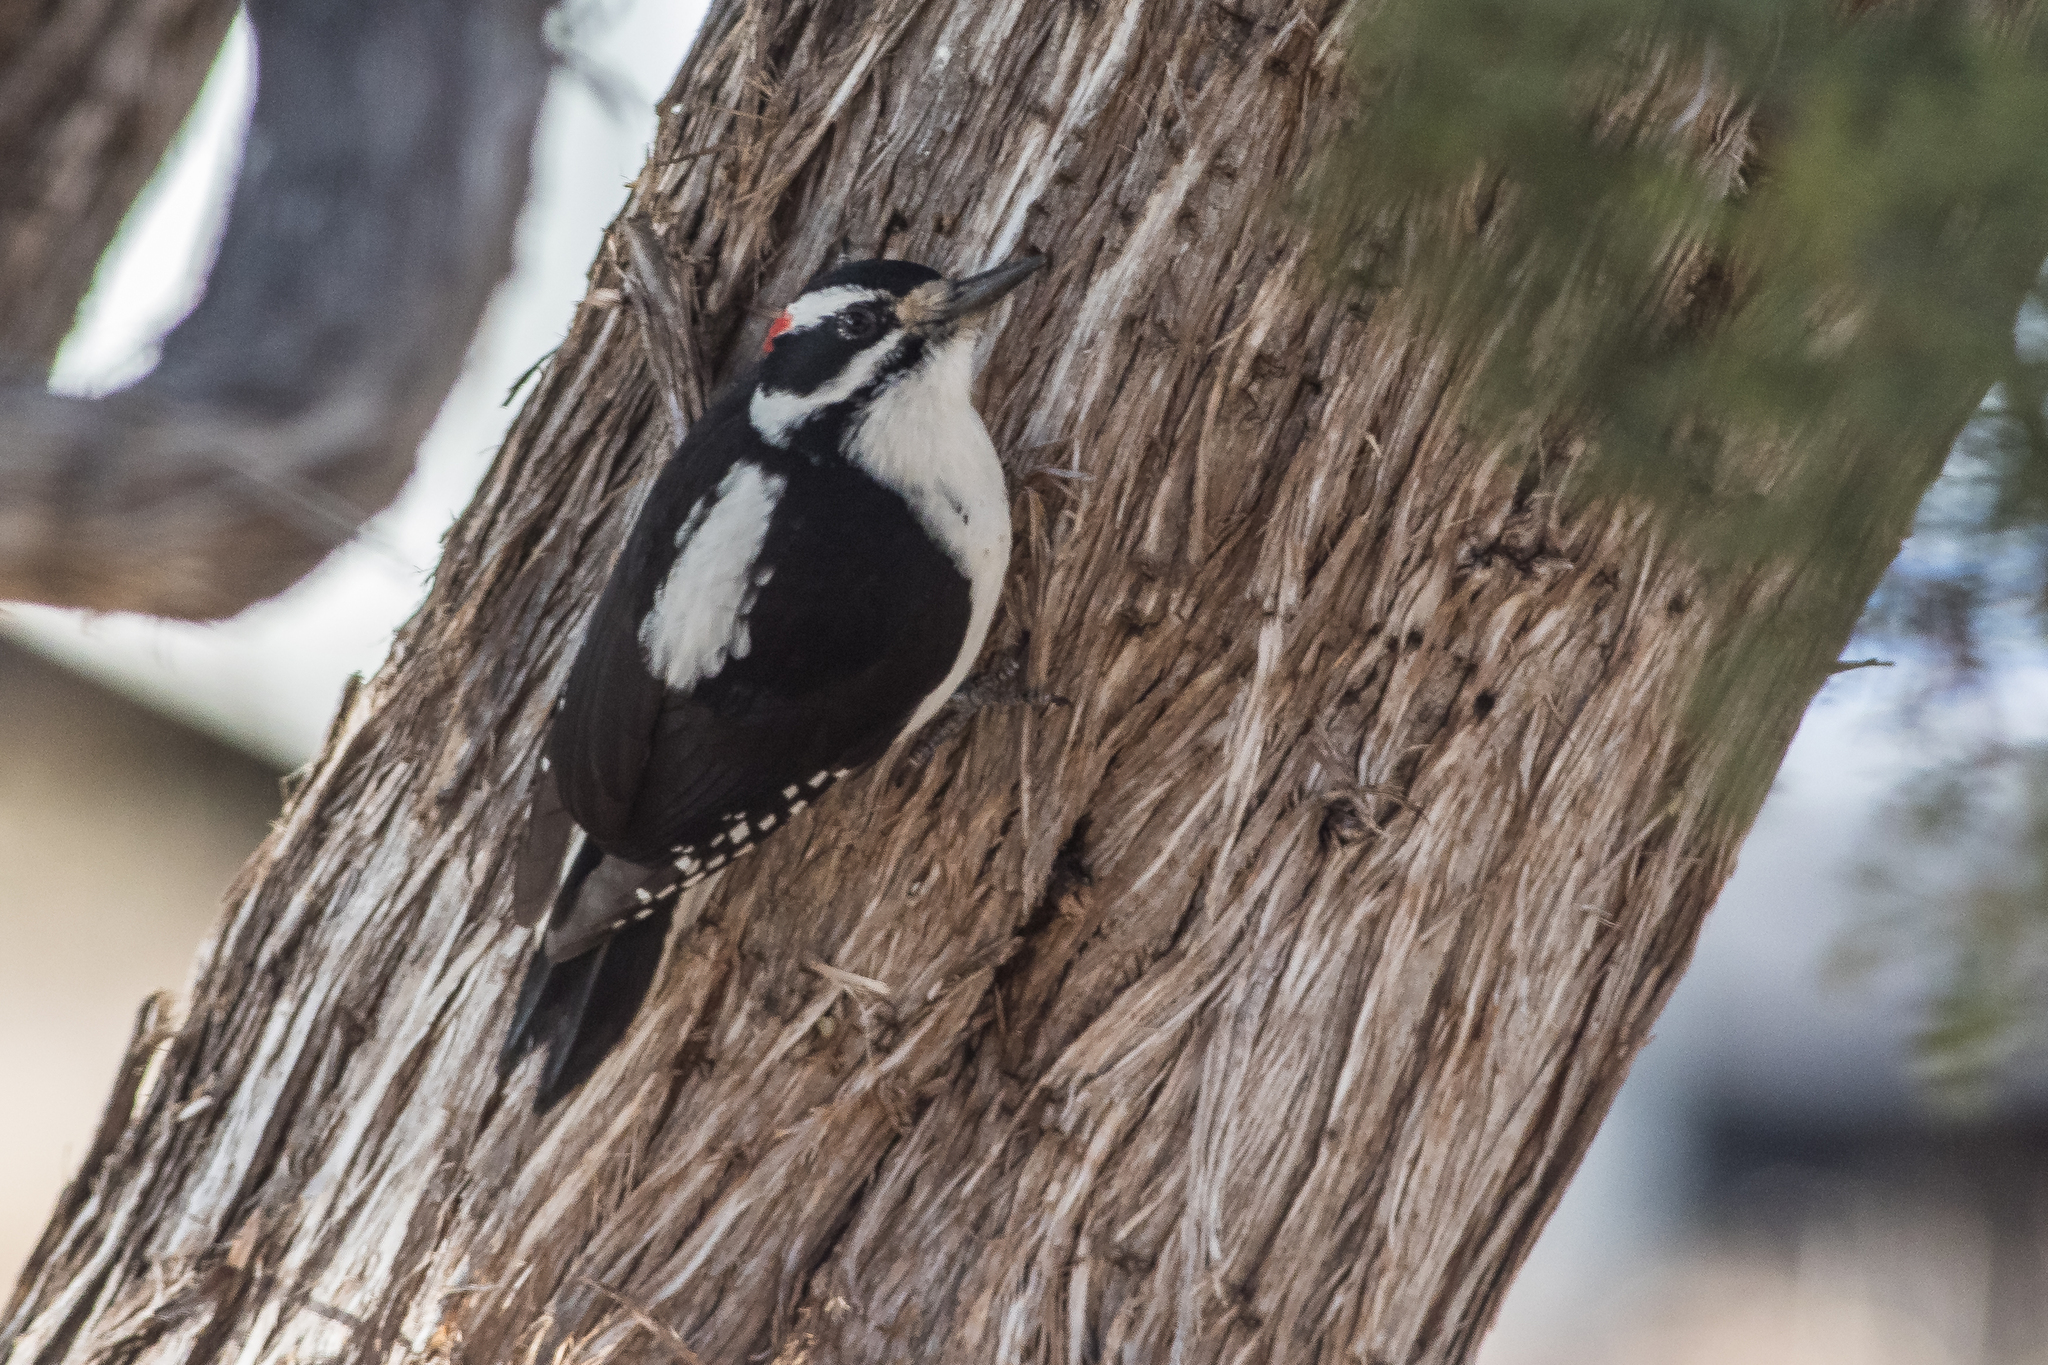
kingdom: Animalia
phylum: Chordata
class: Aves
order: Piciformes
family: Picidae
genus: Leuconotopicus
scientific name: Leuconotopicus villosus
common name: Hairy woodpecker
